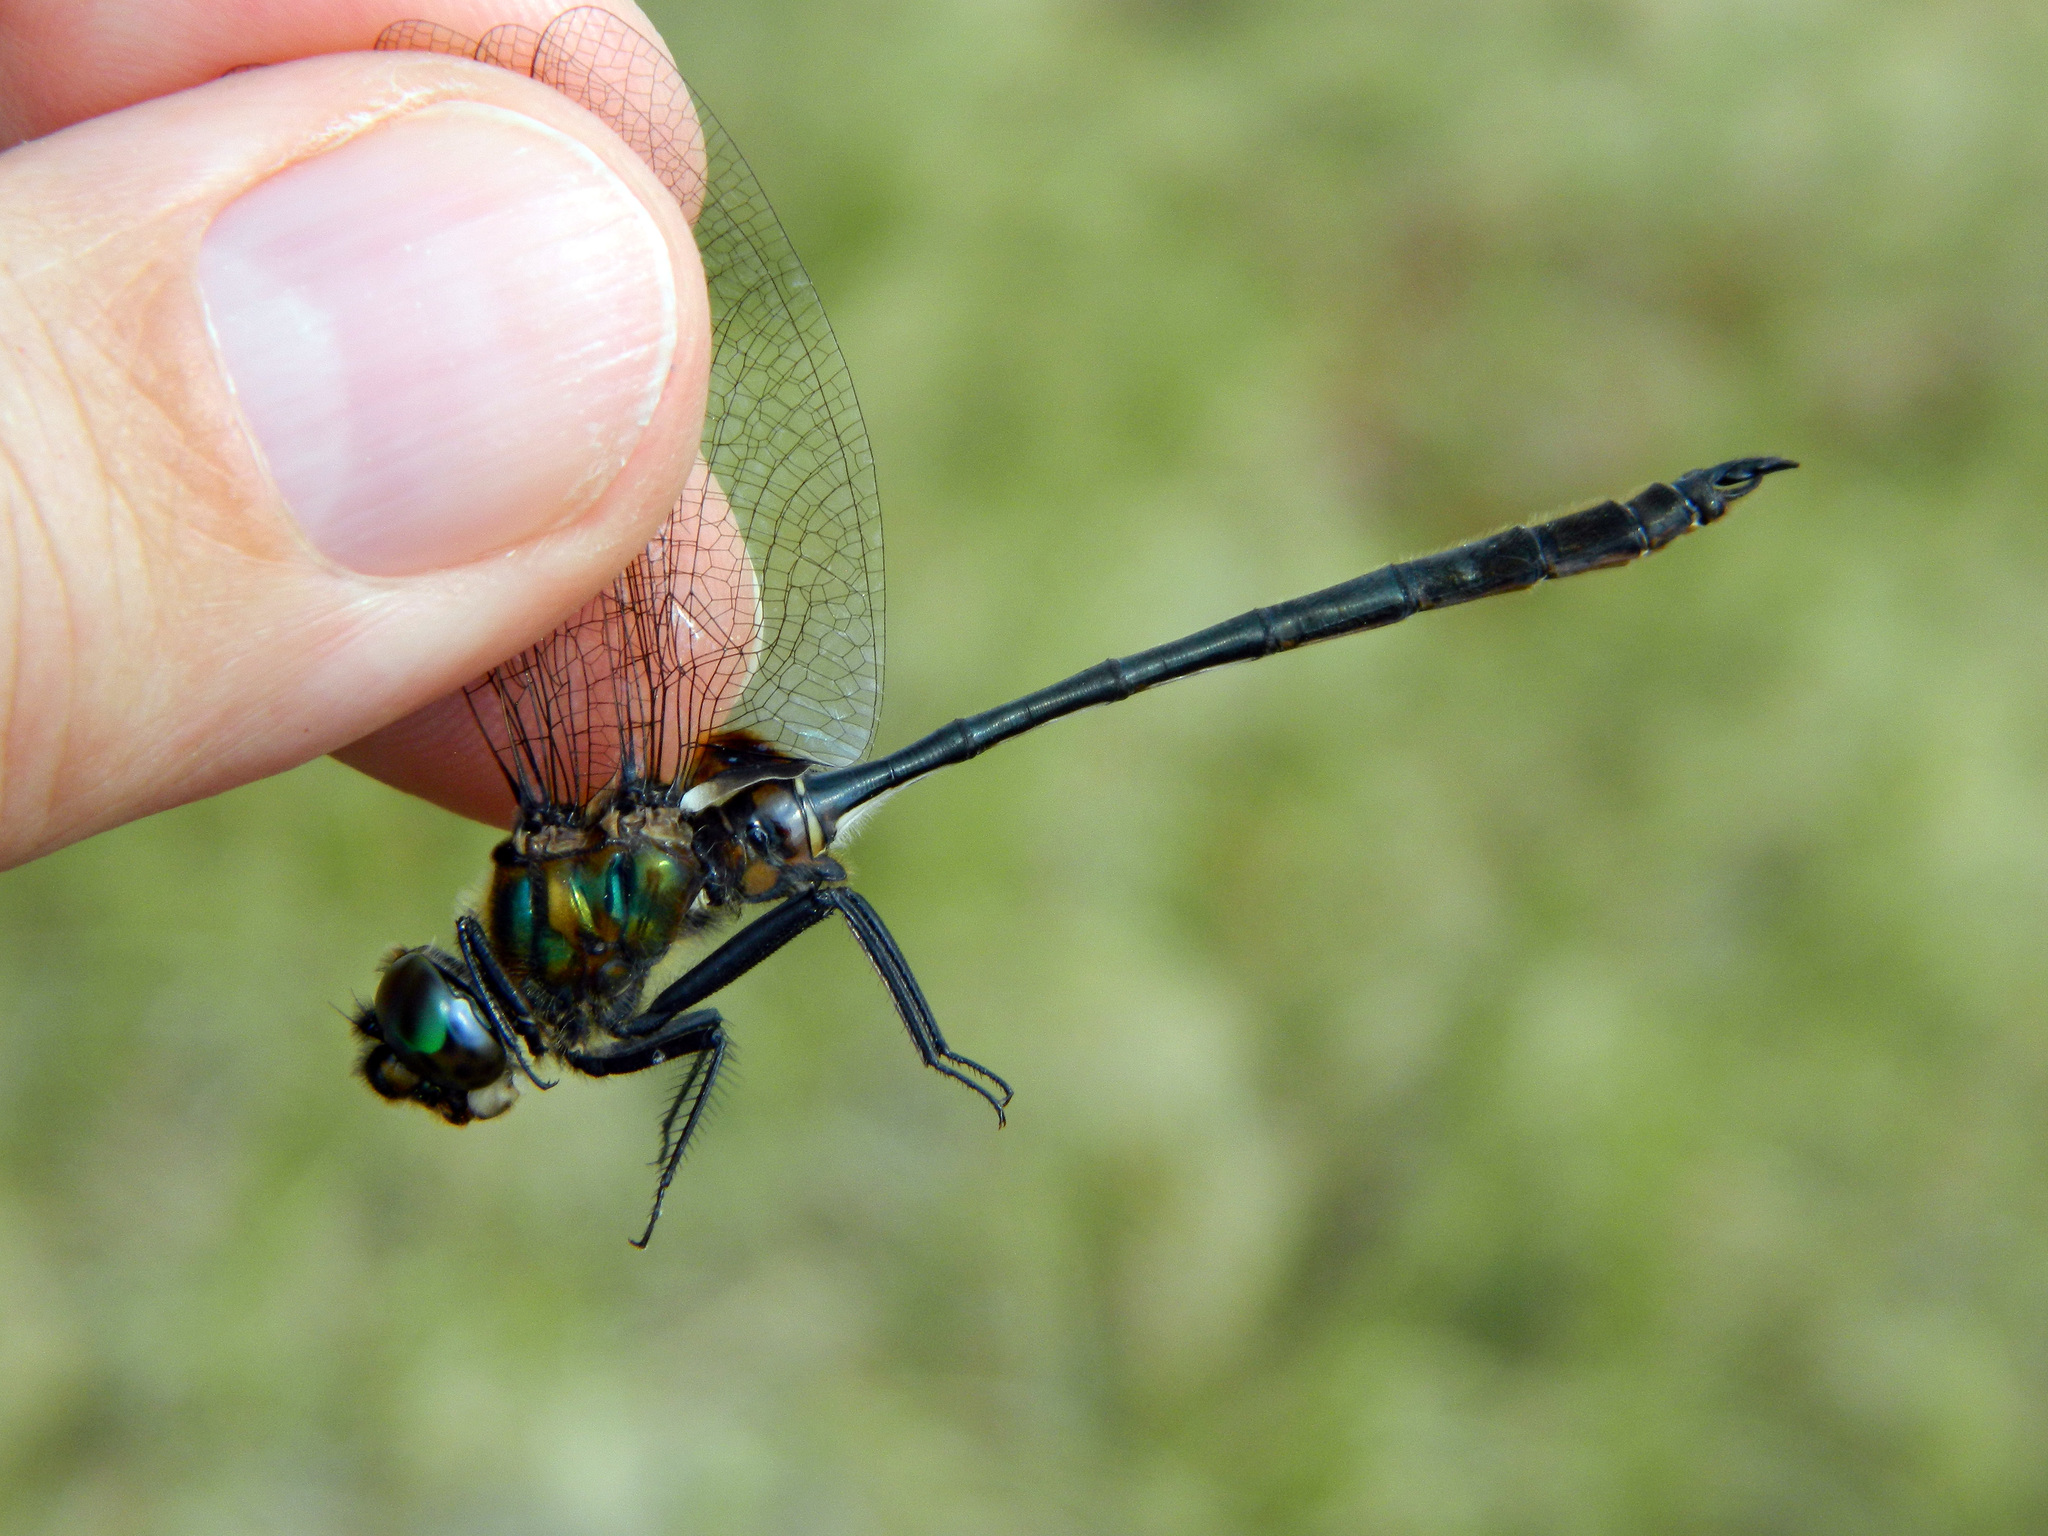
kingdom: Animalia
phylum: Arthropoda
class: Insecta
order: Odonata
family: Corduliidae
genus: Somatochlora
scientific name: Somatochlora franklini
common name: Delicate emerald
